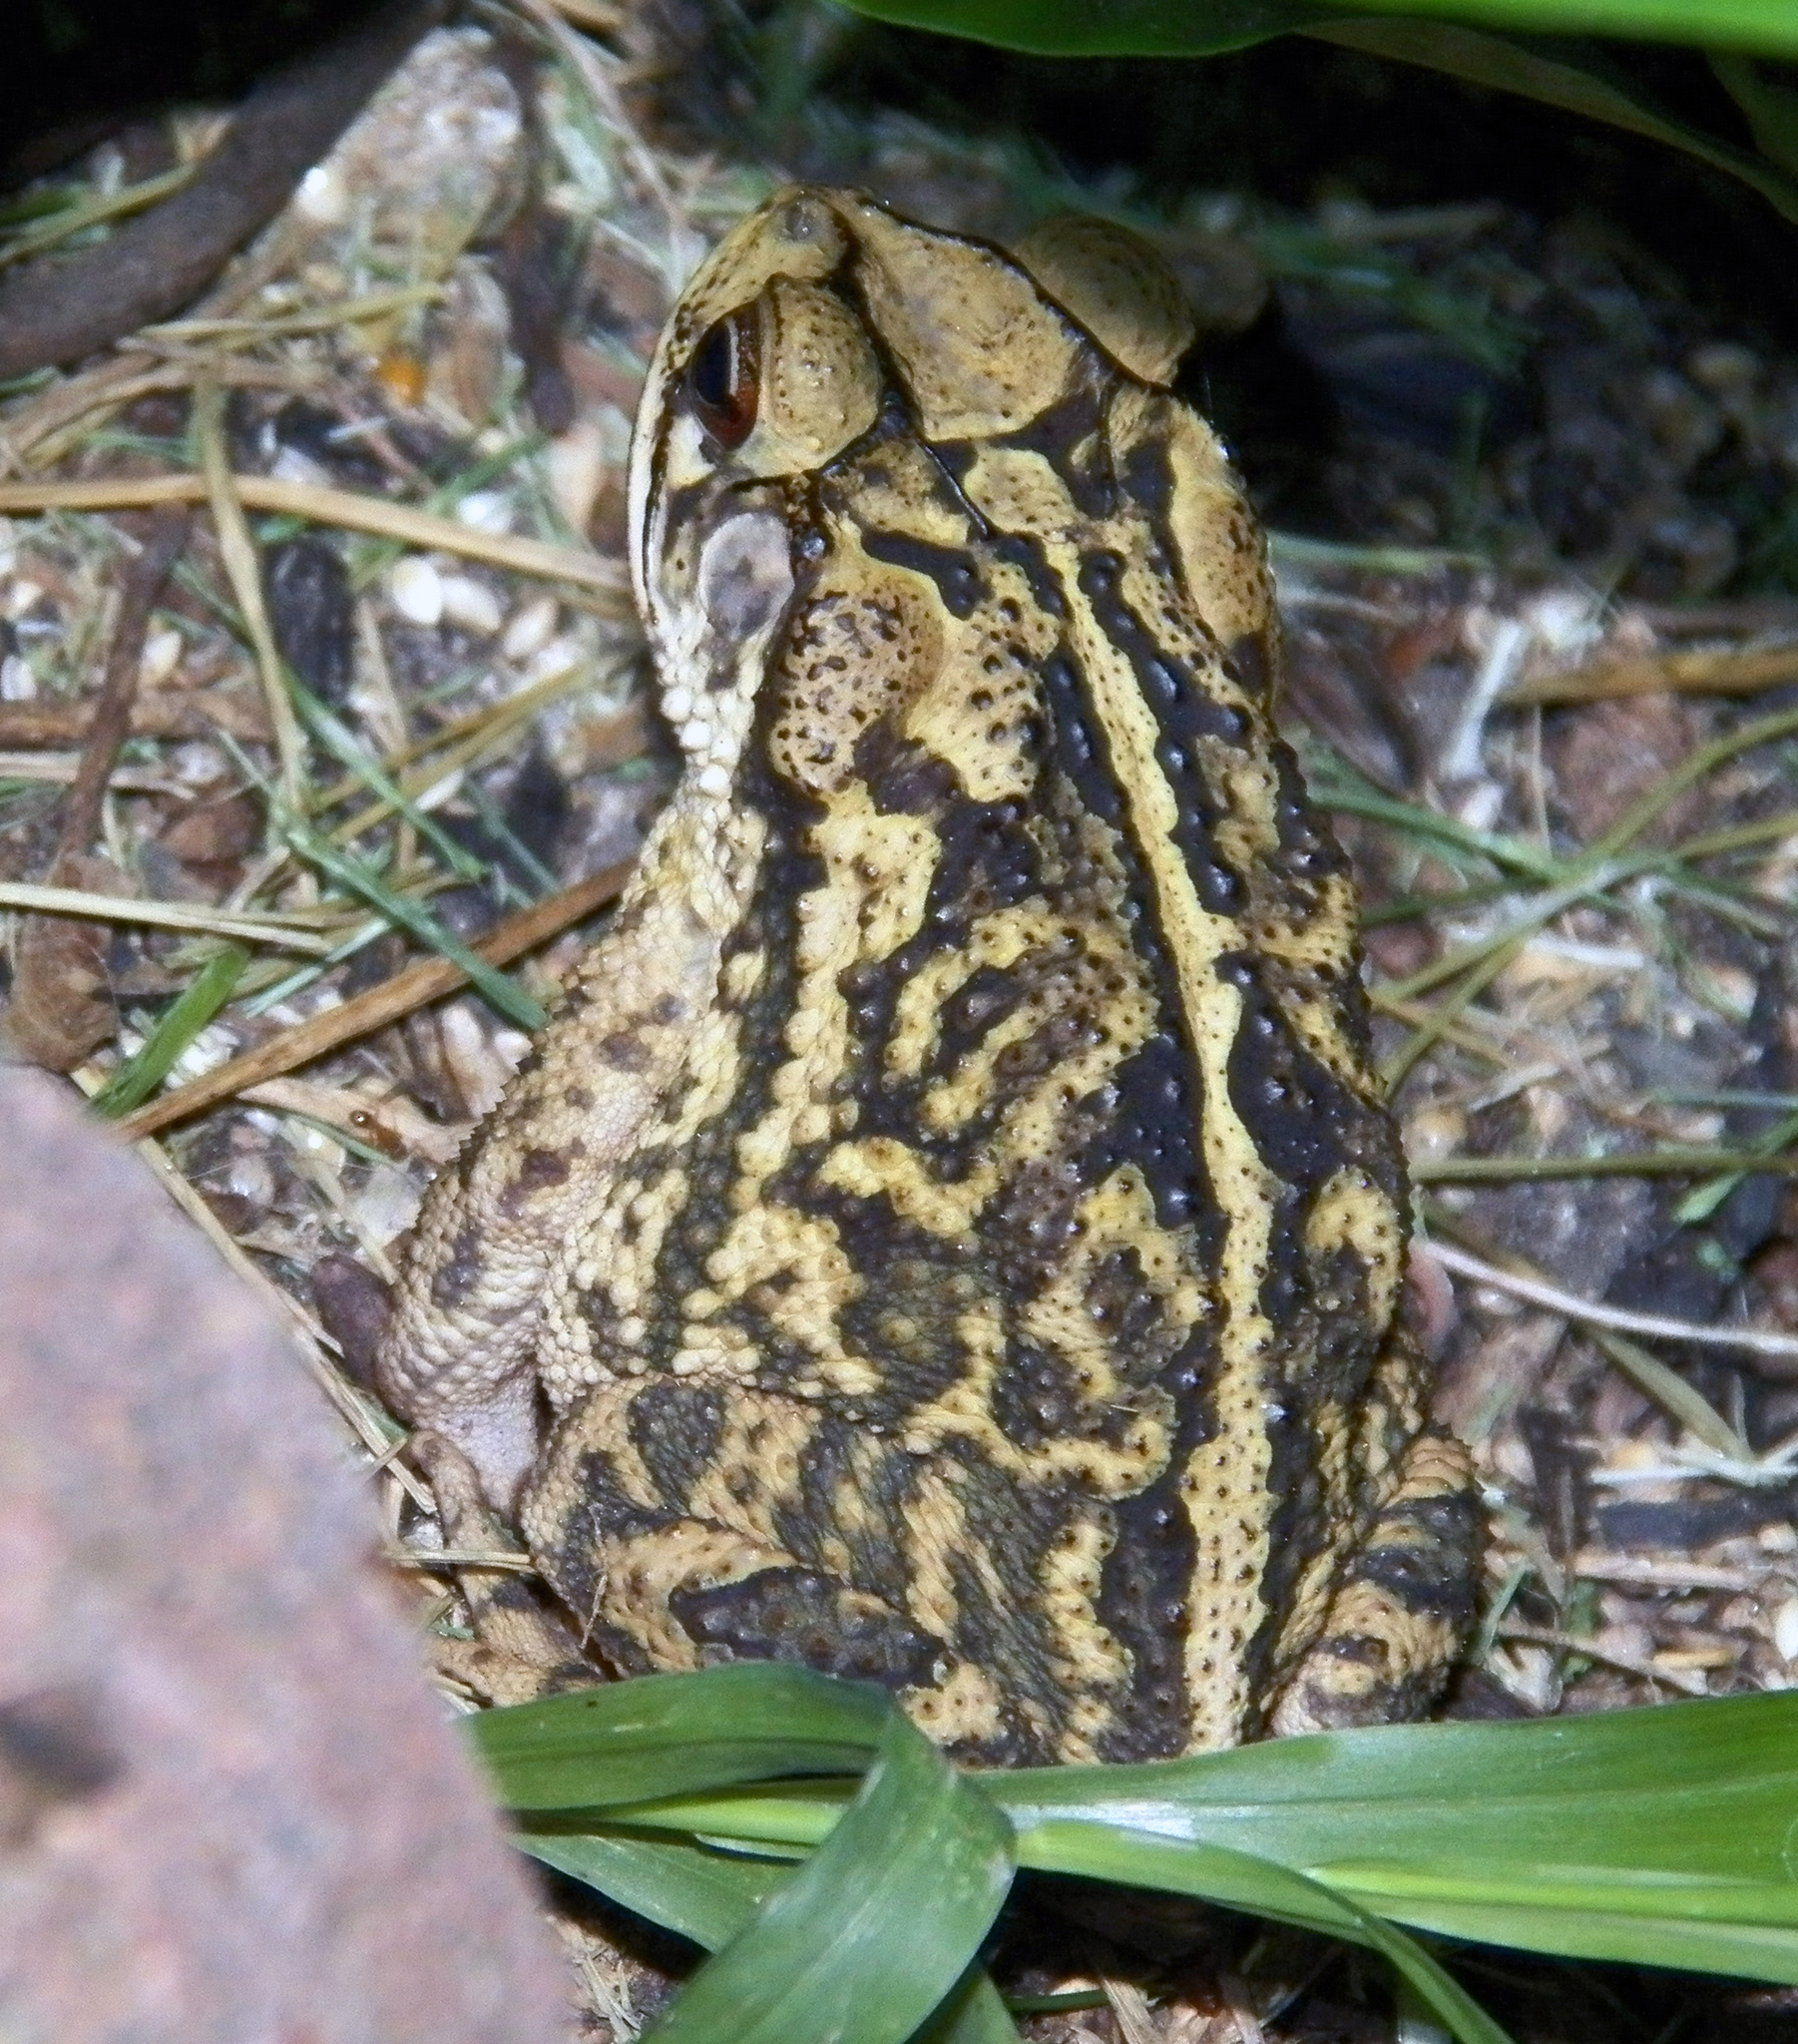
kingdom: Animalia
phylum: Chordata
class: Amphibia
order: Anura
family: Bufonidae
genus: Incilius
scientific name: Incilius nebulifer
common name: Gulf coast toad
